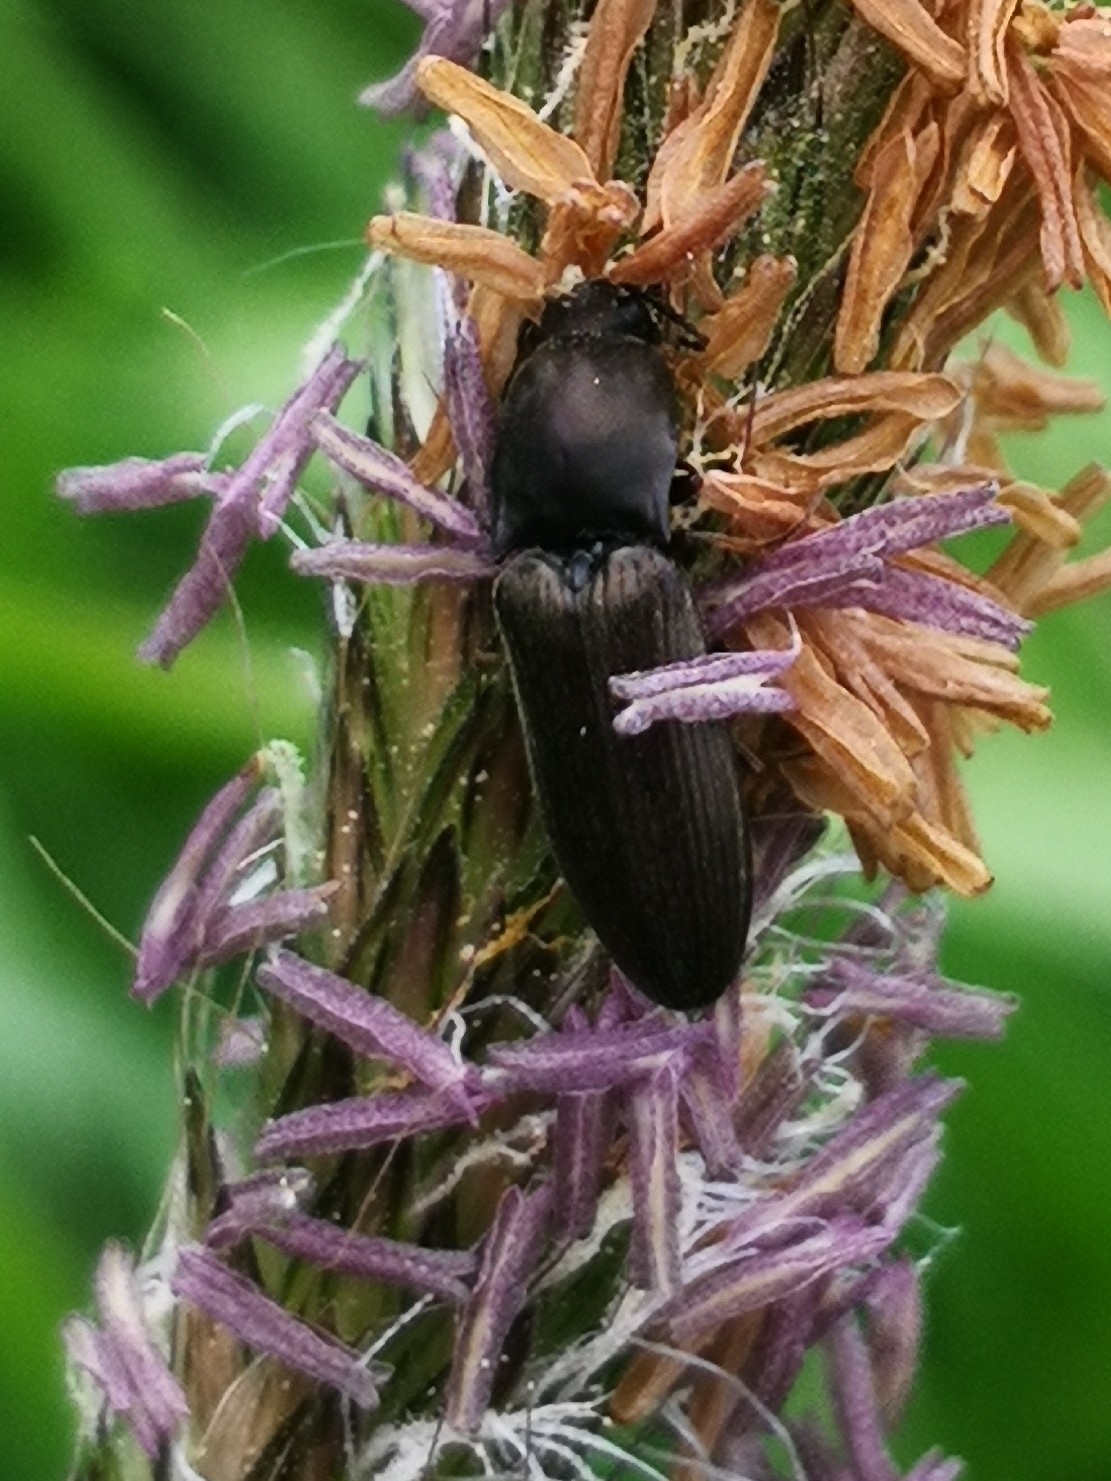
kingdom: Animalia
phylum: Arthropoda
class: Insecta
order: Coleoptera
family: Elateridae
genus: Aplotarsus
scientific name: Aplotarsus incanus
